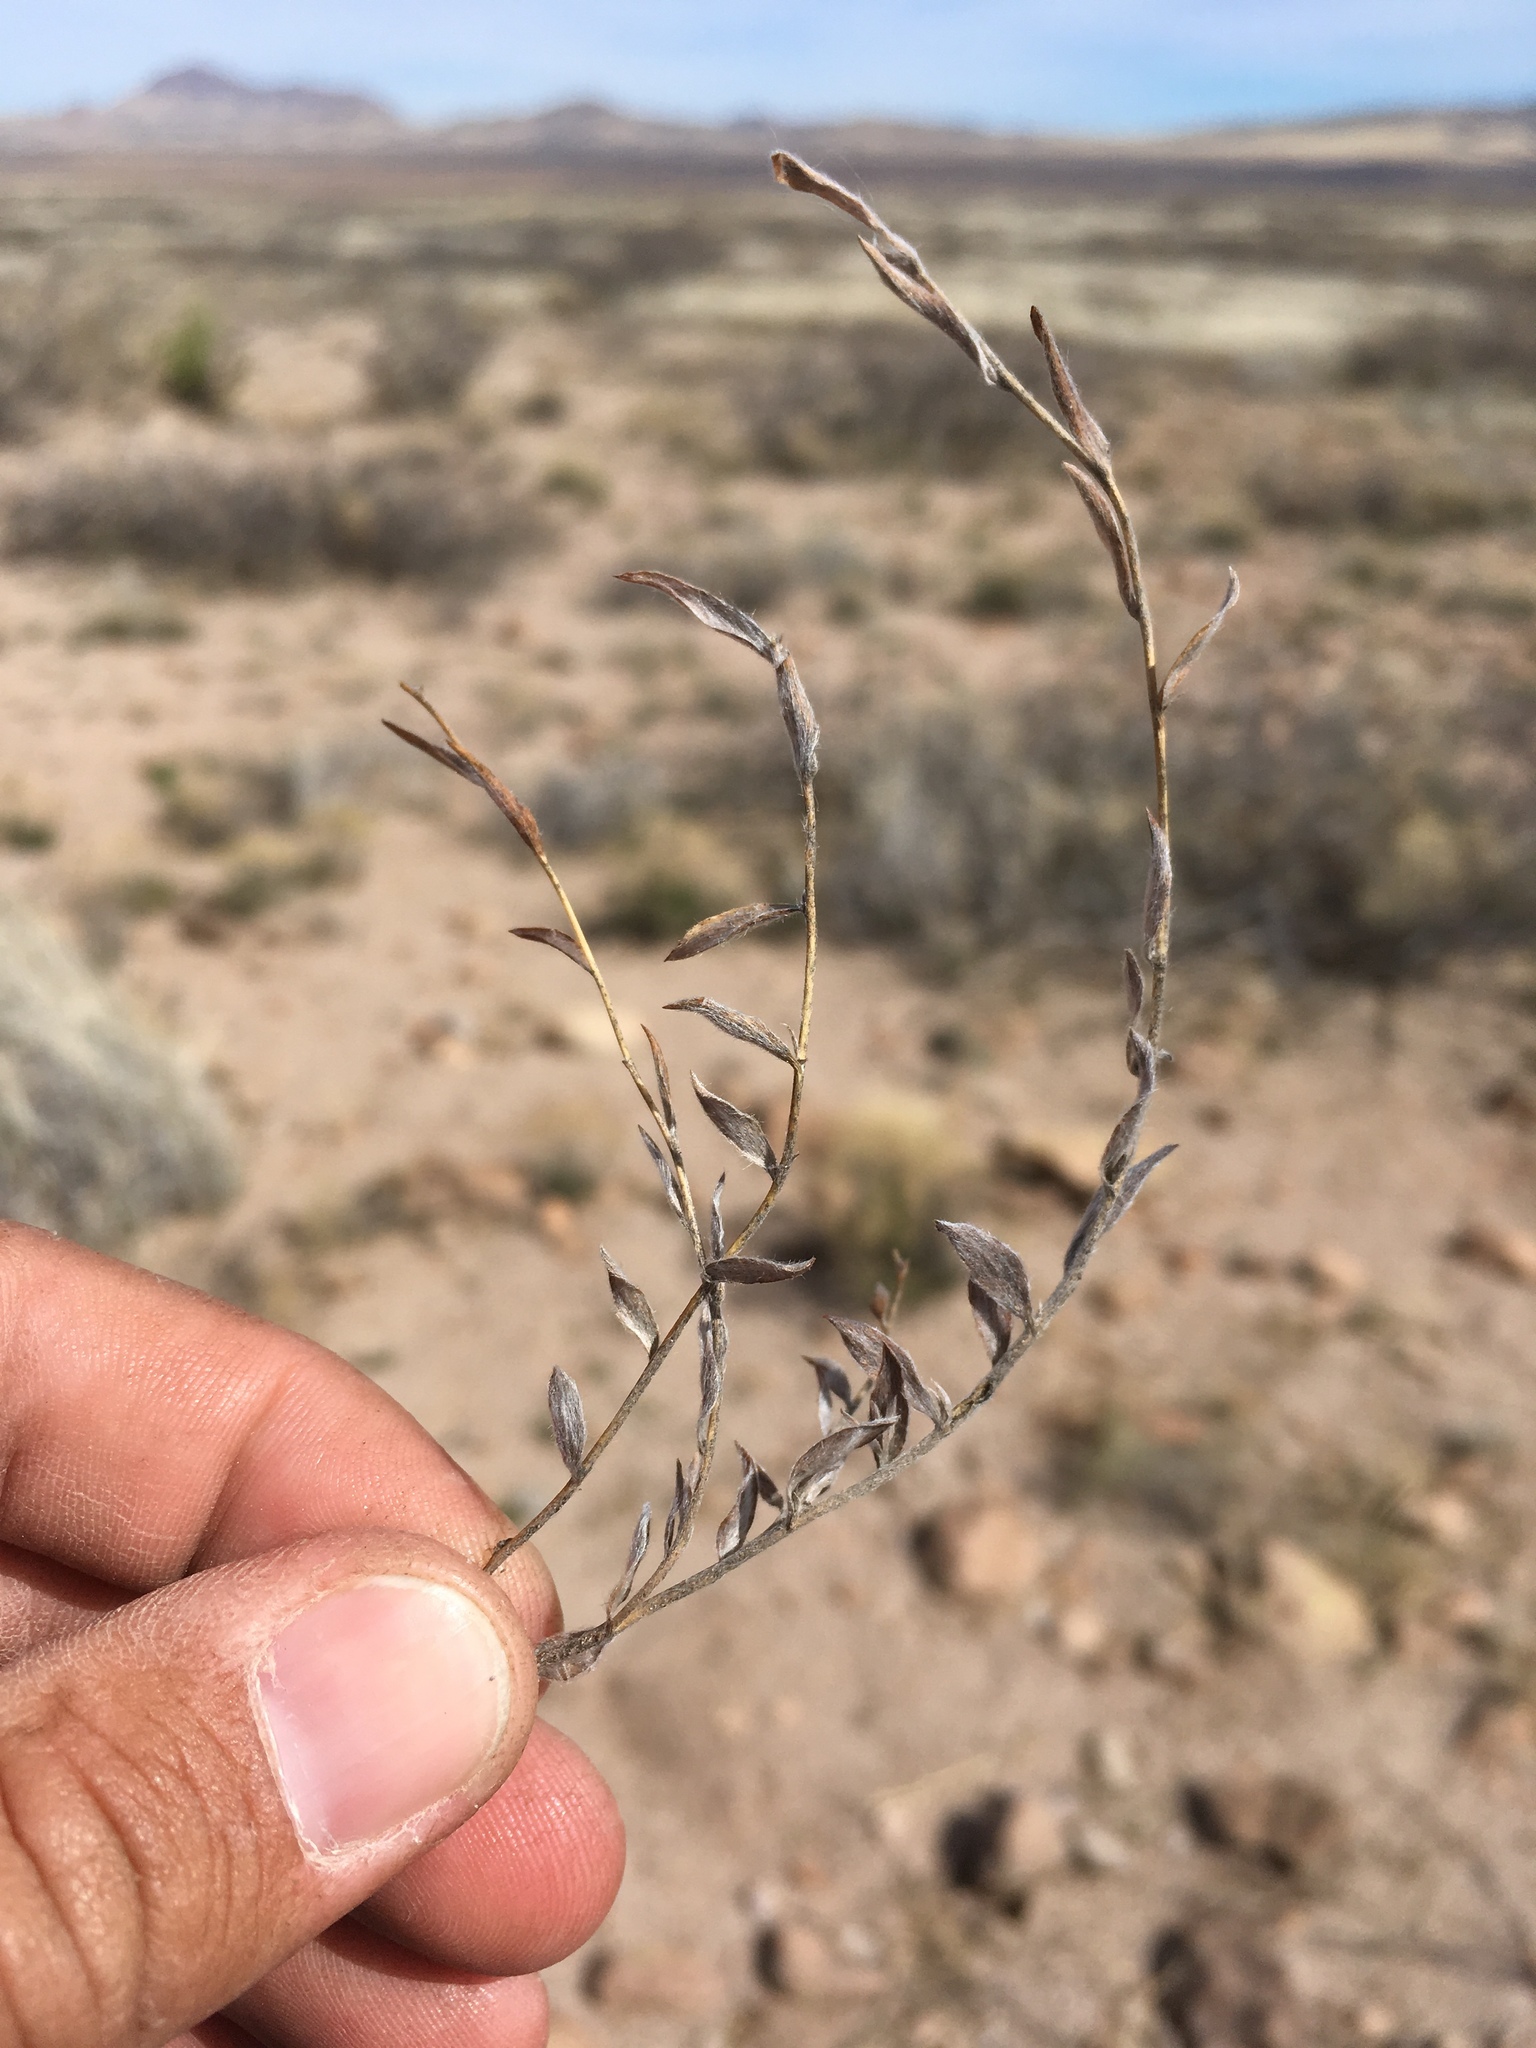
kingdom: Plantae
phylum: Tracheophyta
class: Magnoliopsida
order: Solanales
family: Convolvulaceae
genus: Evolvulus
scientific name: Evolvulus sericeus
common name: Blue dots
